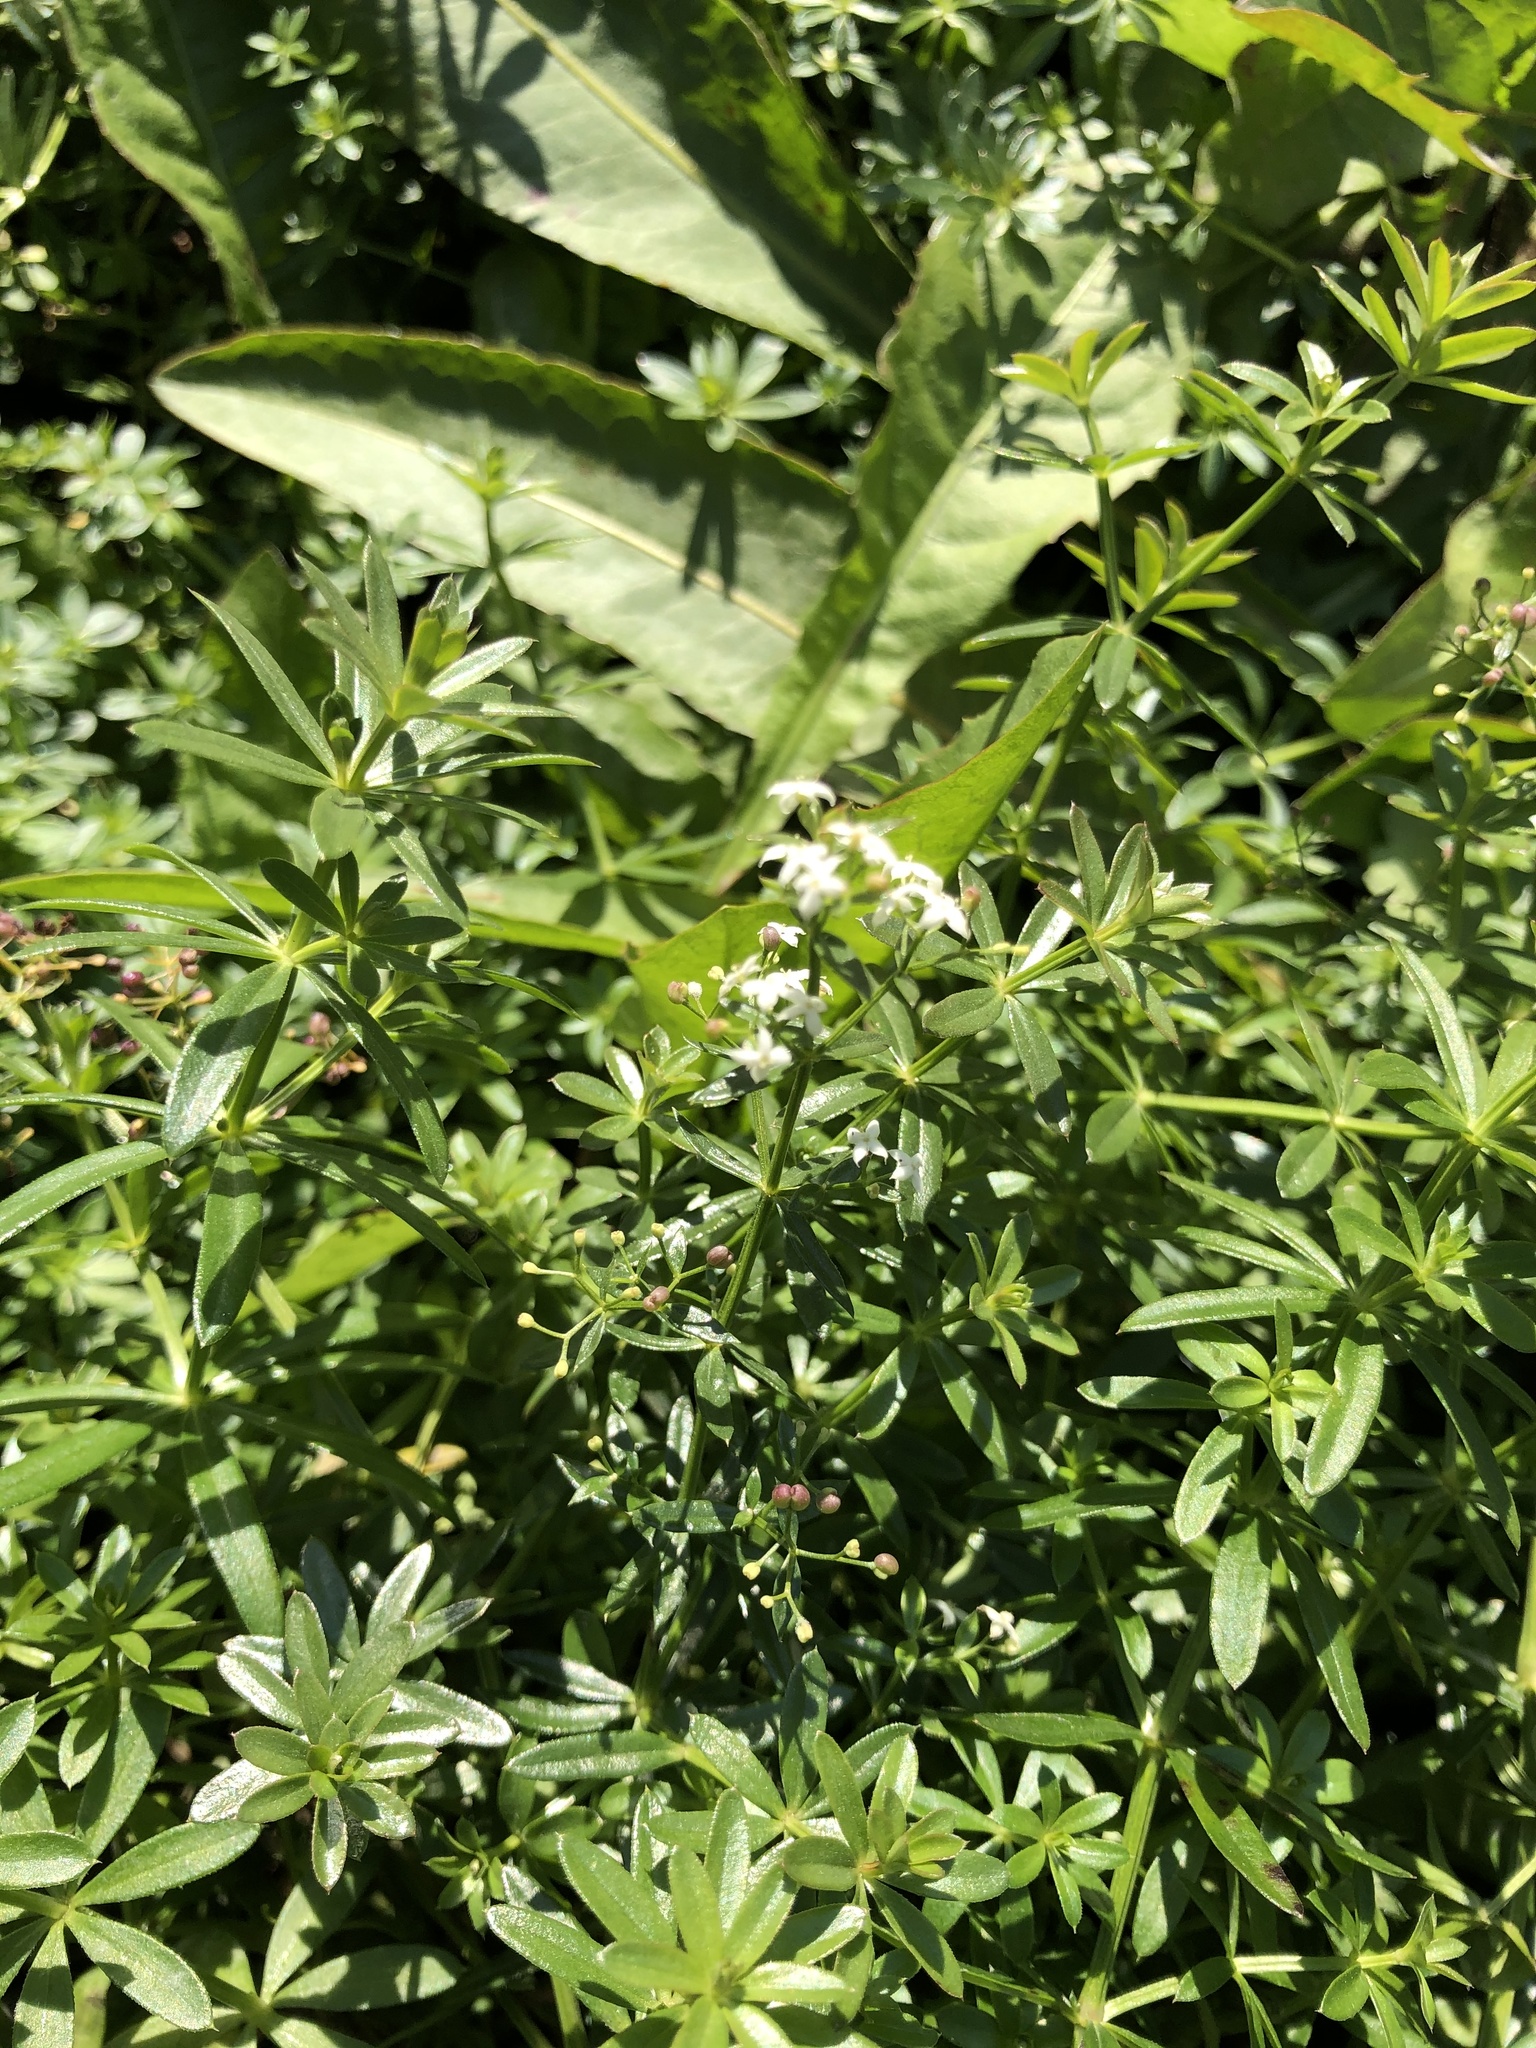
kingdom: Plantae
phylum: Tracheophyta
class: Magnoliopsida
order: Gentianales
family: Rubiaceae
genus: Galium
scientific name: Galium mollugo
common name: Hedge bedstraw
